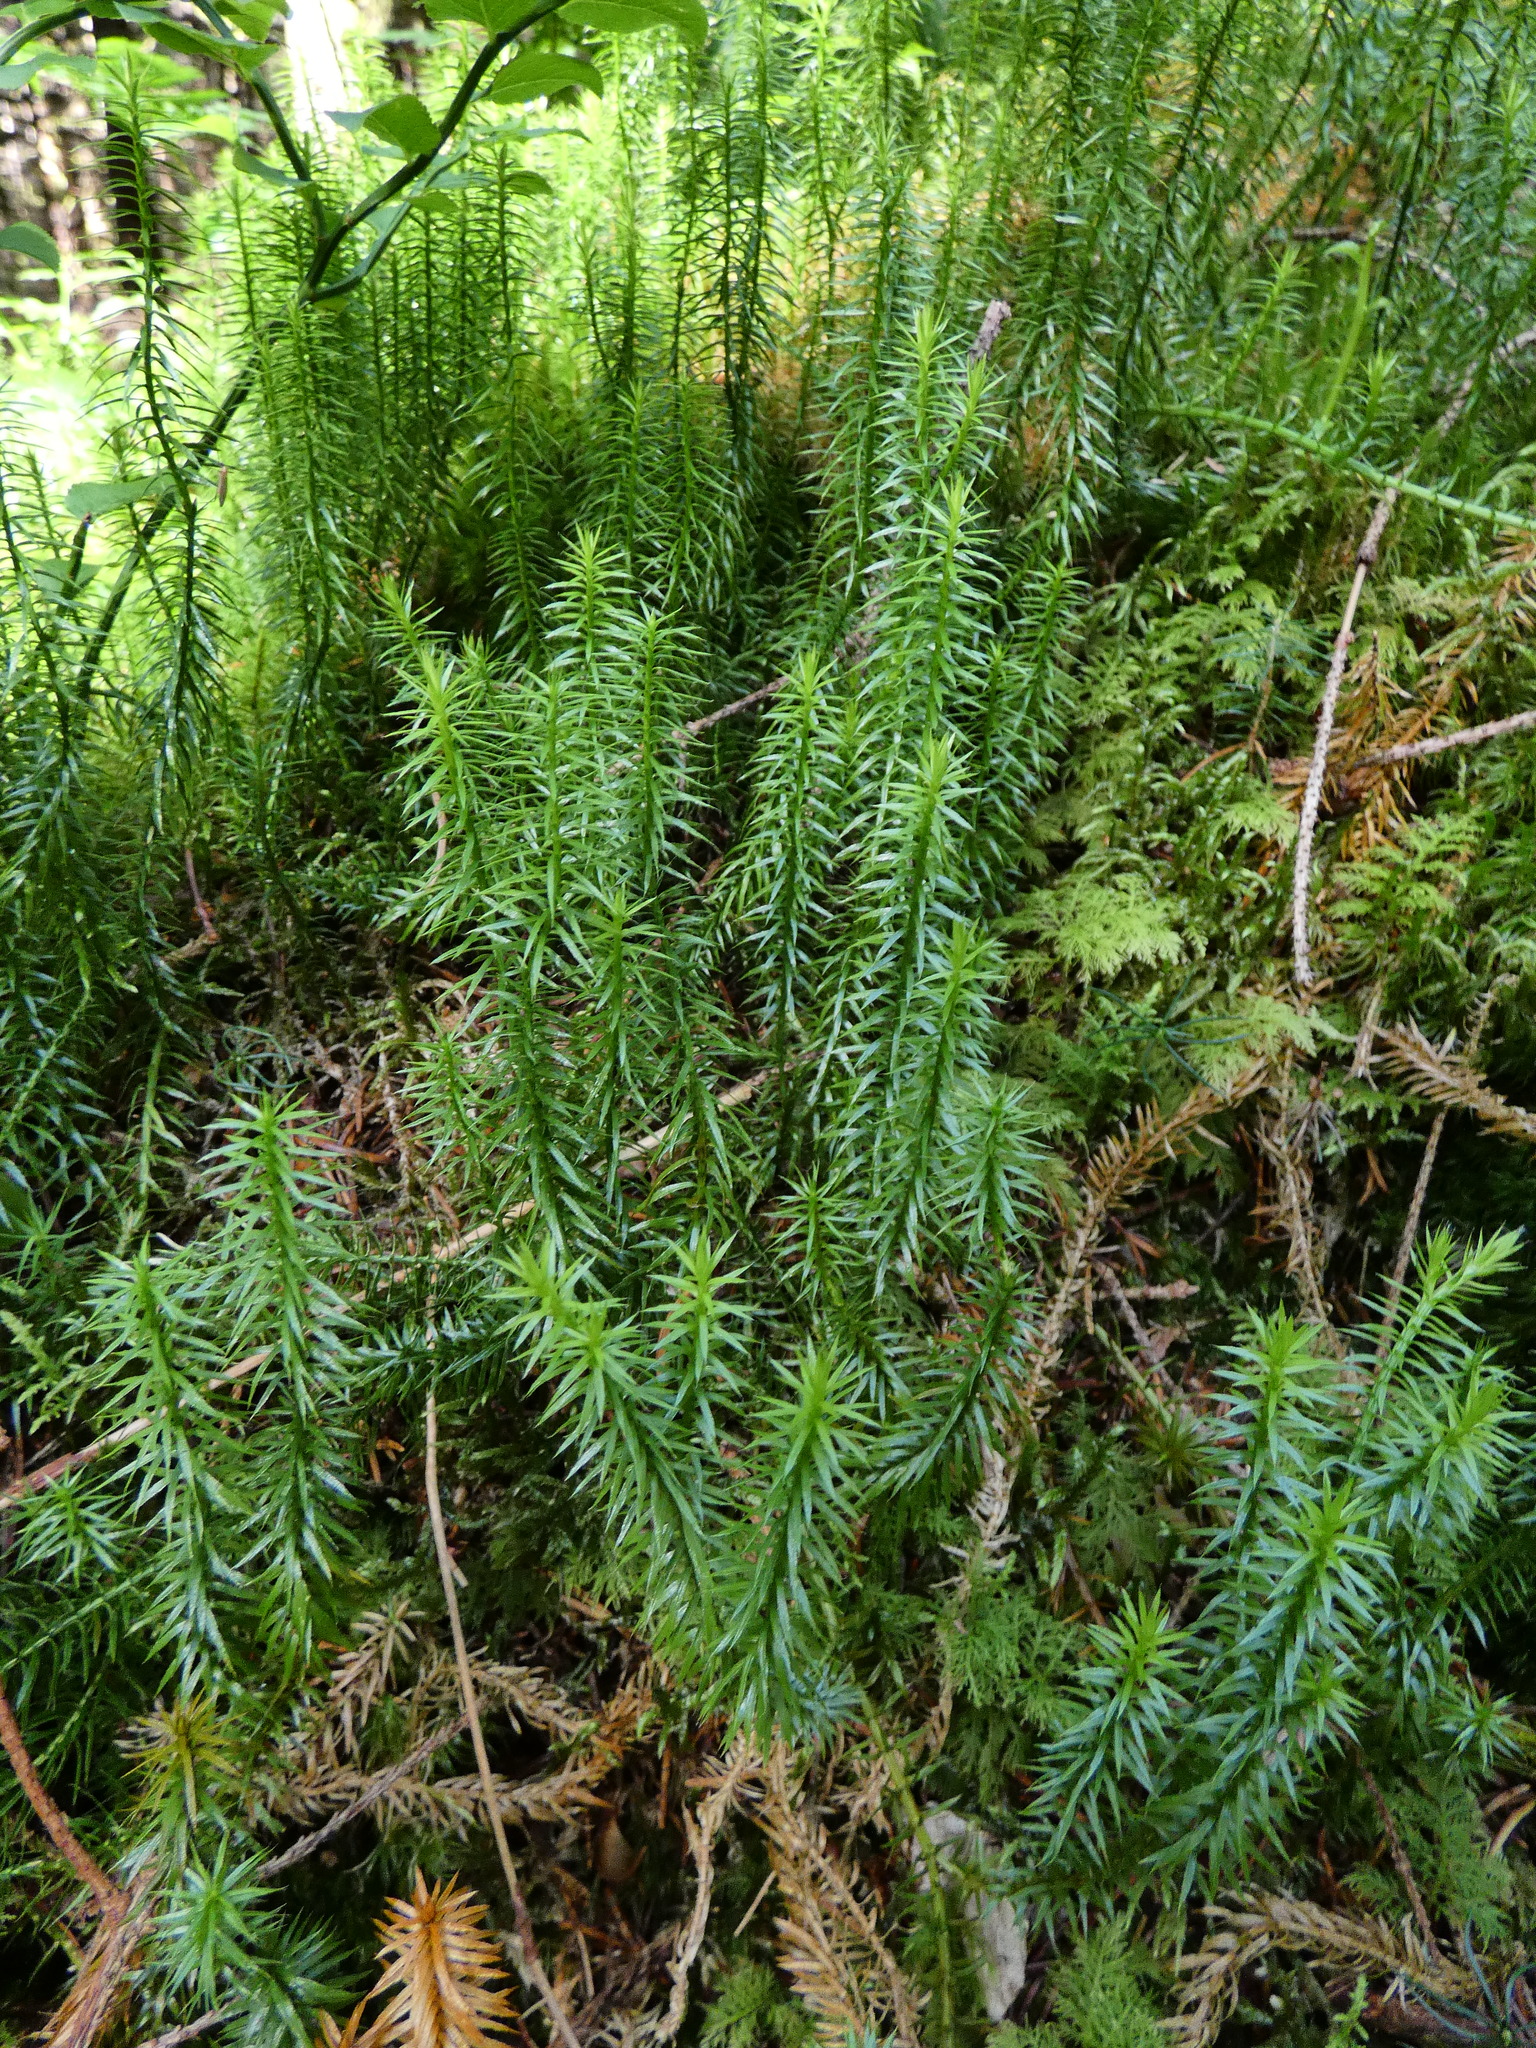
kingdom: Plantae
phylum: Tracheophyta
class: Lycopodiopsida
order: Lycopodiales
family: Lycopodiaceae
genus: Spinulum
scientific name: Spinulum annotinum
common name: Interrupted club-moss
